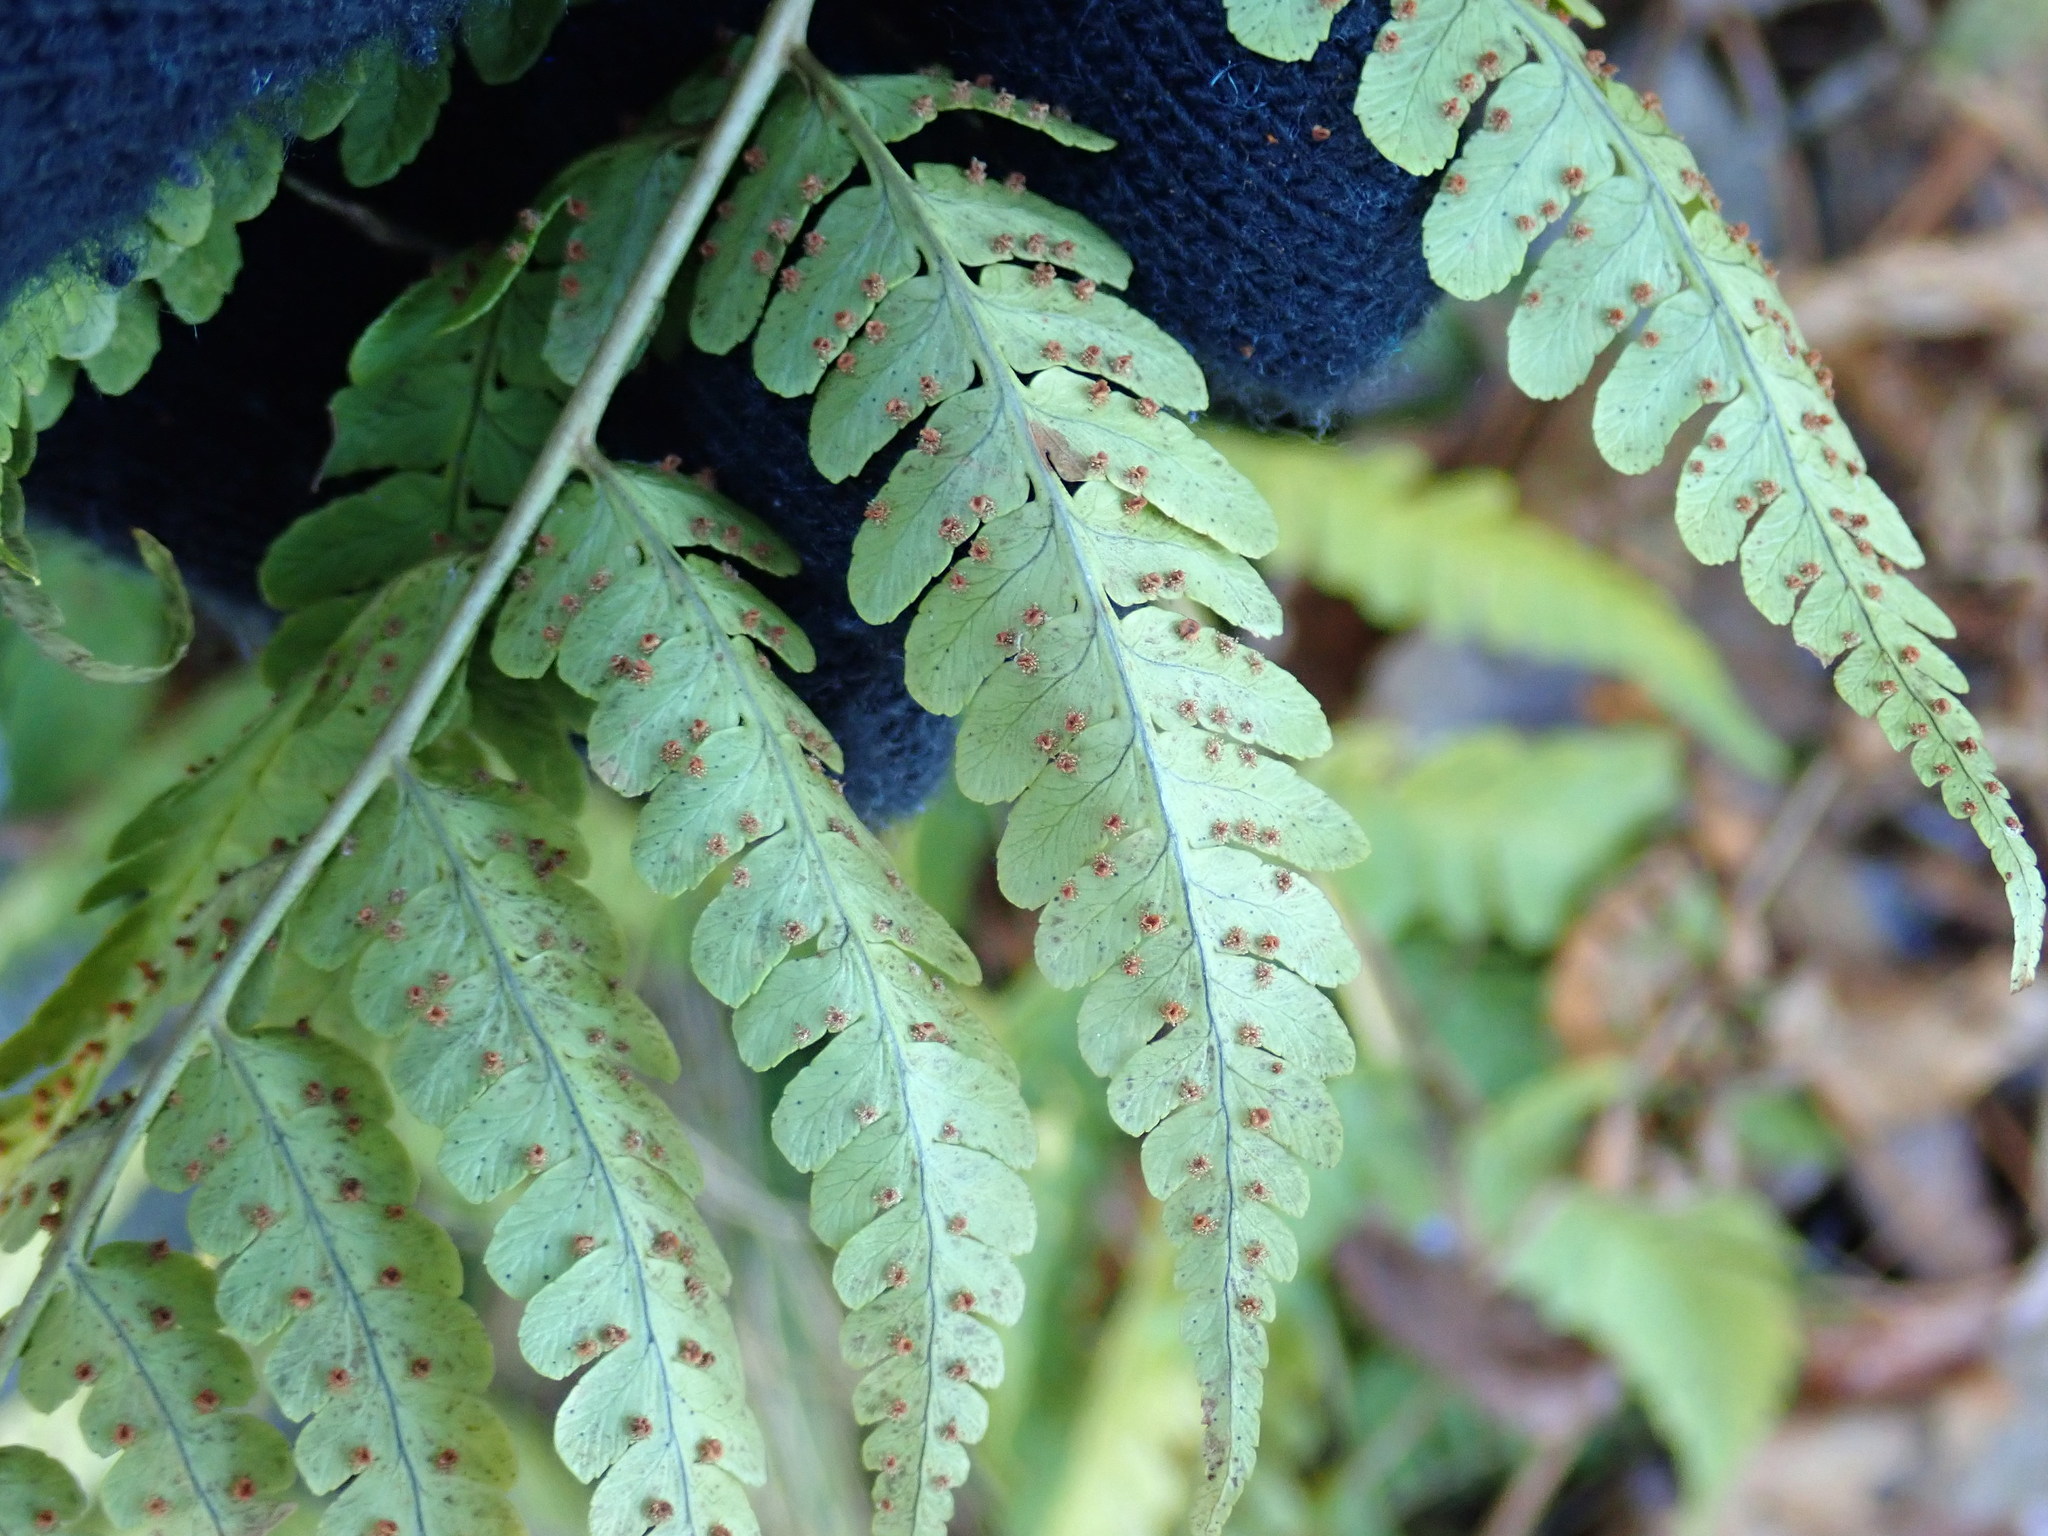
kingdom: Plantae
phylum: Tracheophyta
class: Polypodiopsida
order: Polypodiales
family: Dryopteridaceae
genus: Dryopteris
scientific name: Dryopteris marginalis
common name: Marginal wood fern
